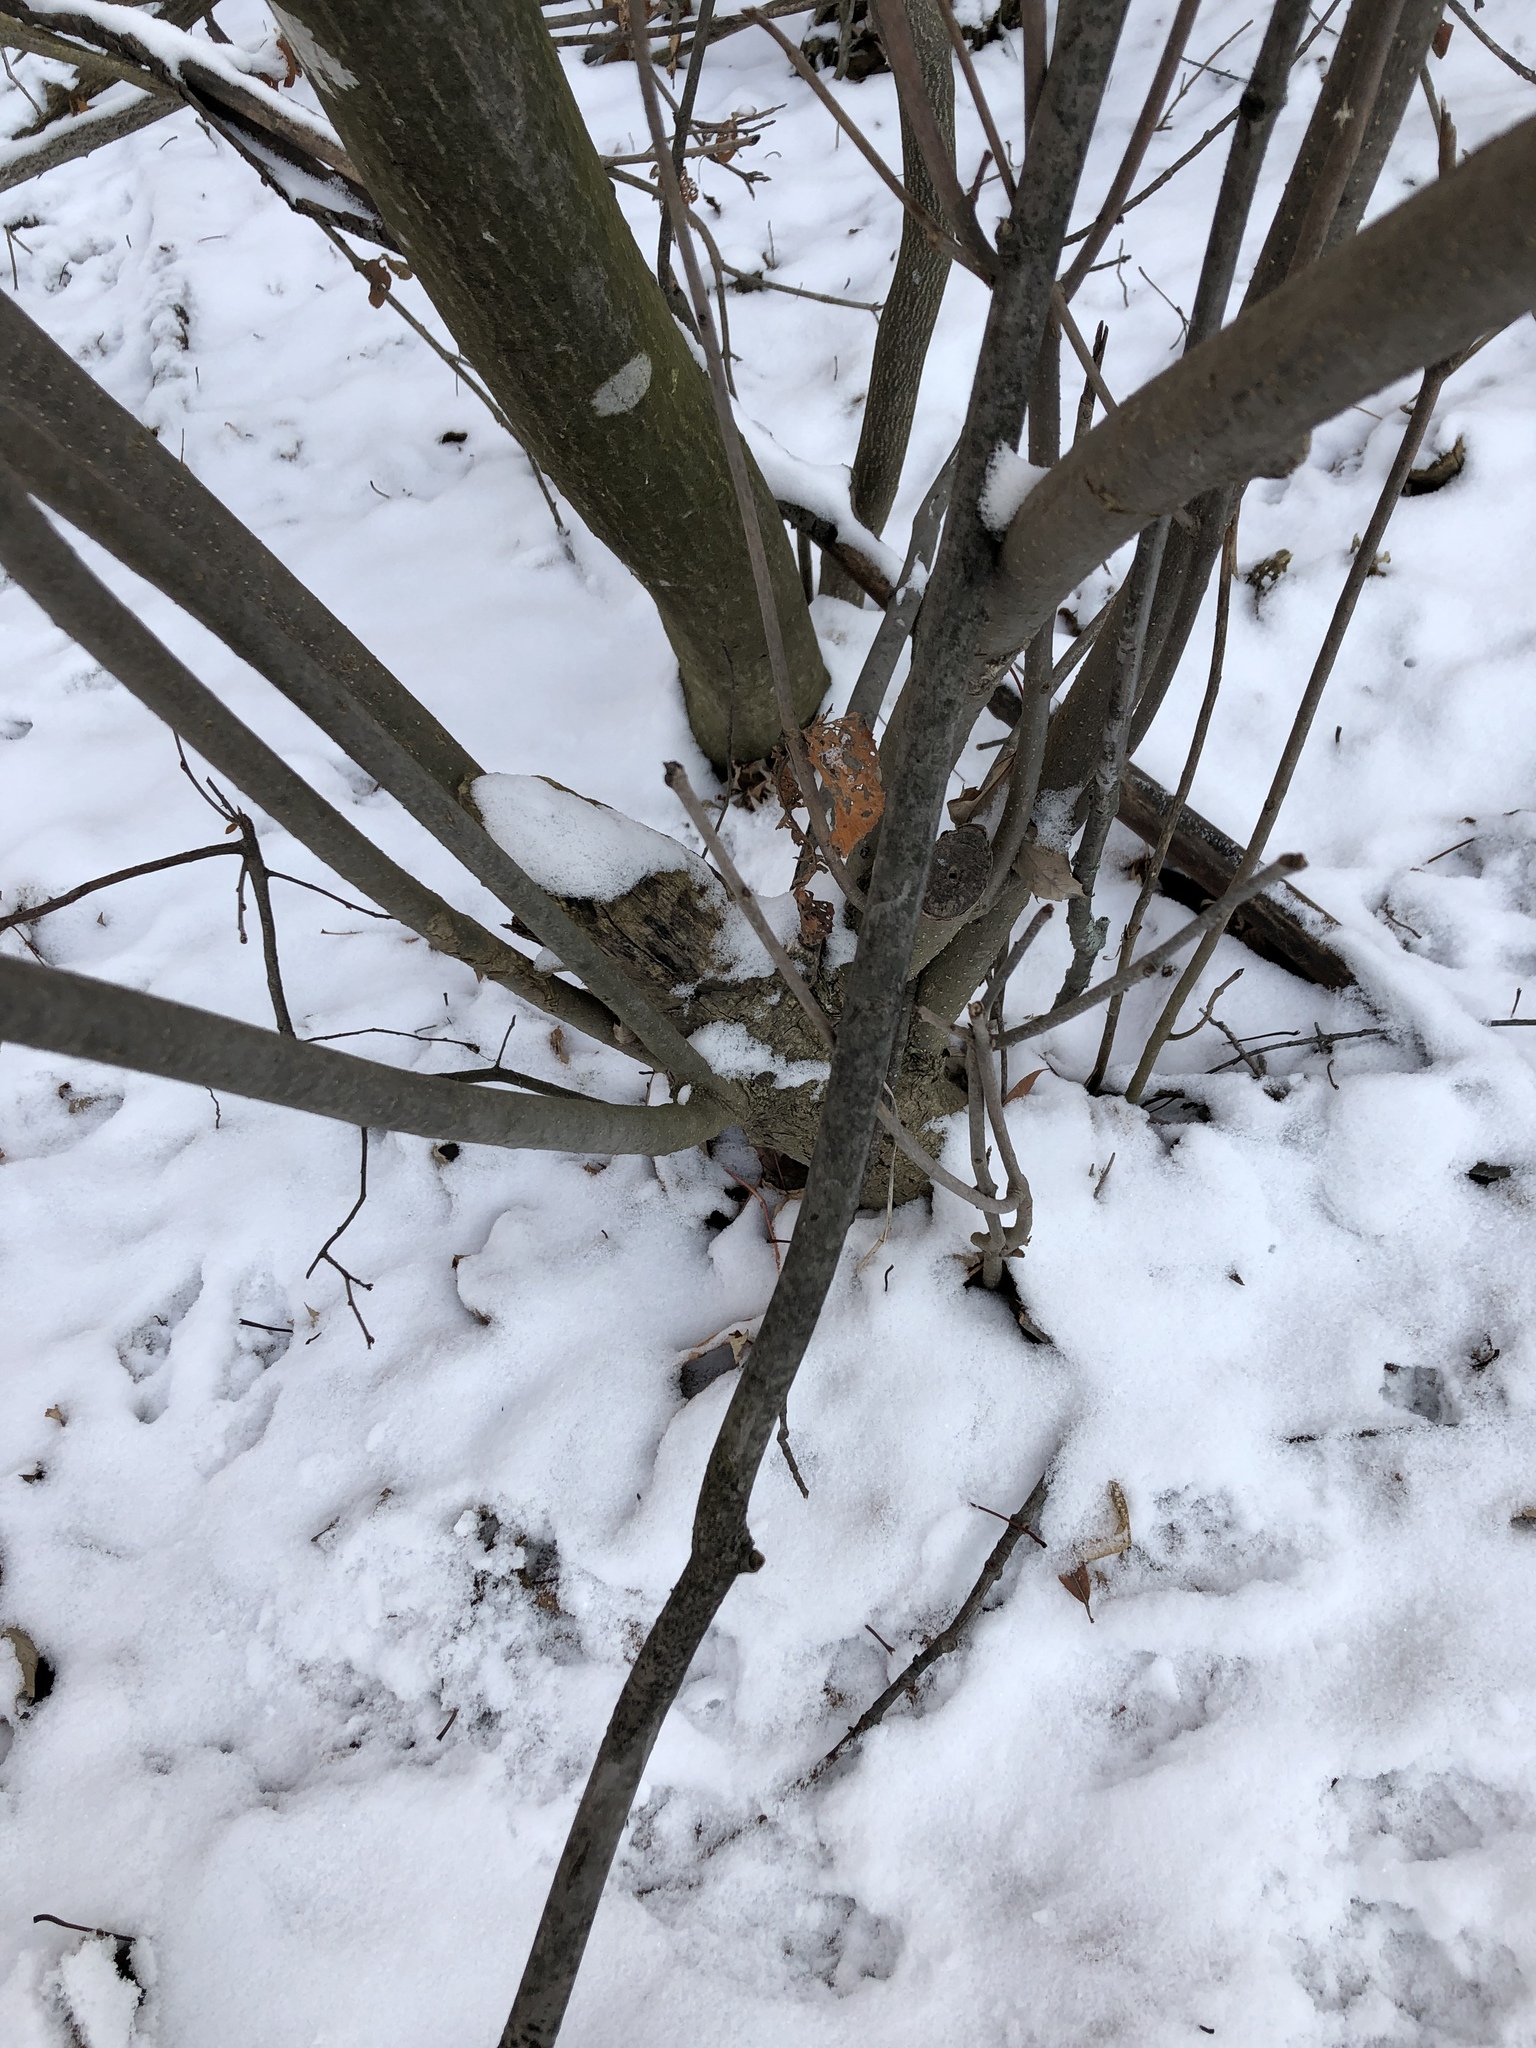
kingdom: Plantae
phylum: Tracheophyta
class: Magnoliopsida
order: Dipsacales
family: Viburnaceae
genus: Viburnum
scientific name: Viburnum lantana
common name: Wayfaring tree
